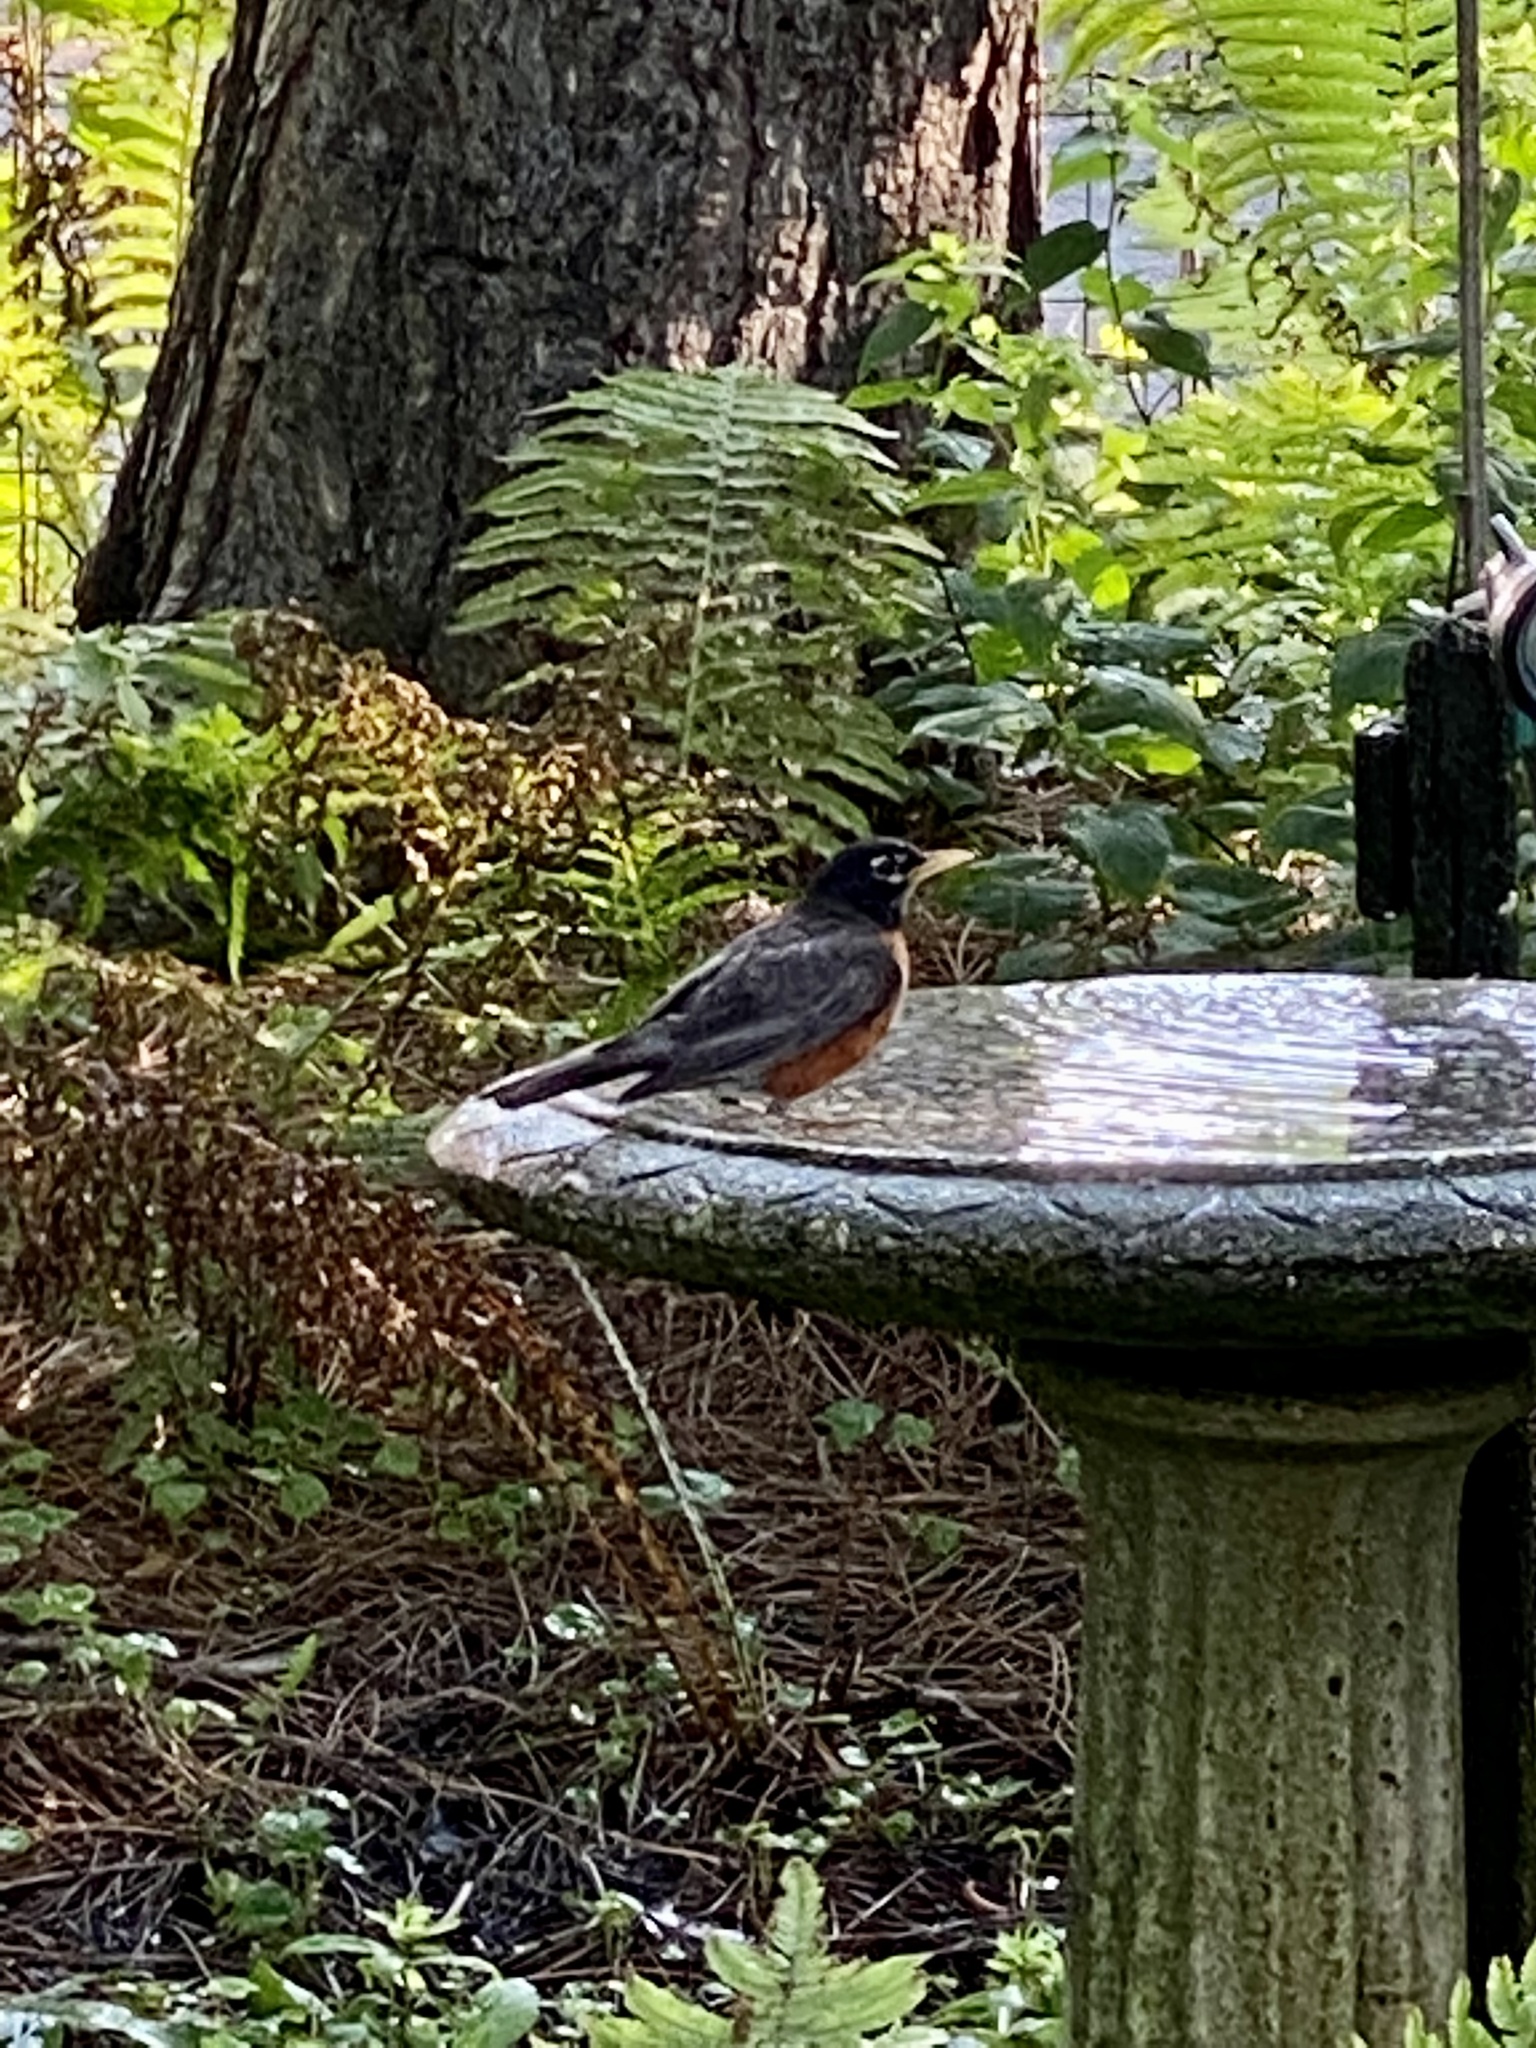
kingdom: Animalia
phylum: Chordata
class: Aves
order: Passeriformes
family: Turdidae
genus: Turdus
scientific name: Turdus migratorius
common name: American robin
